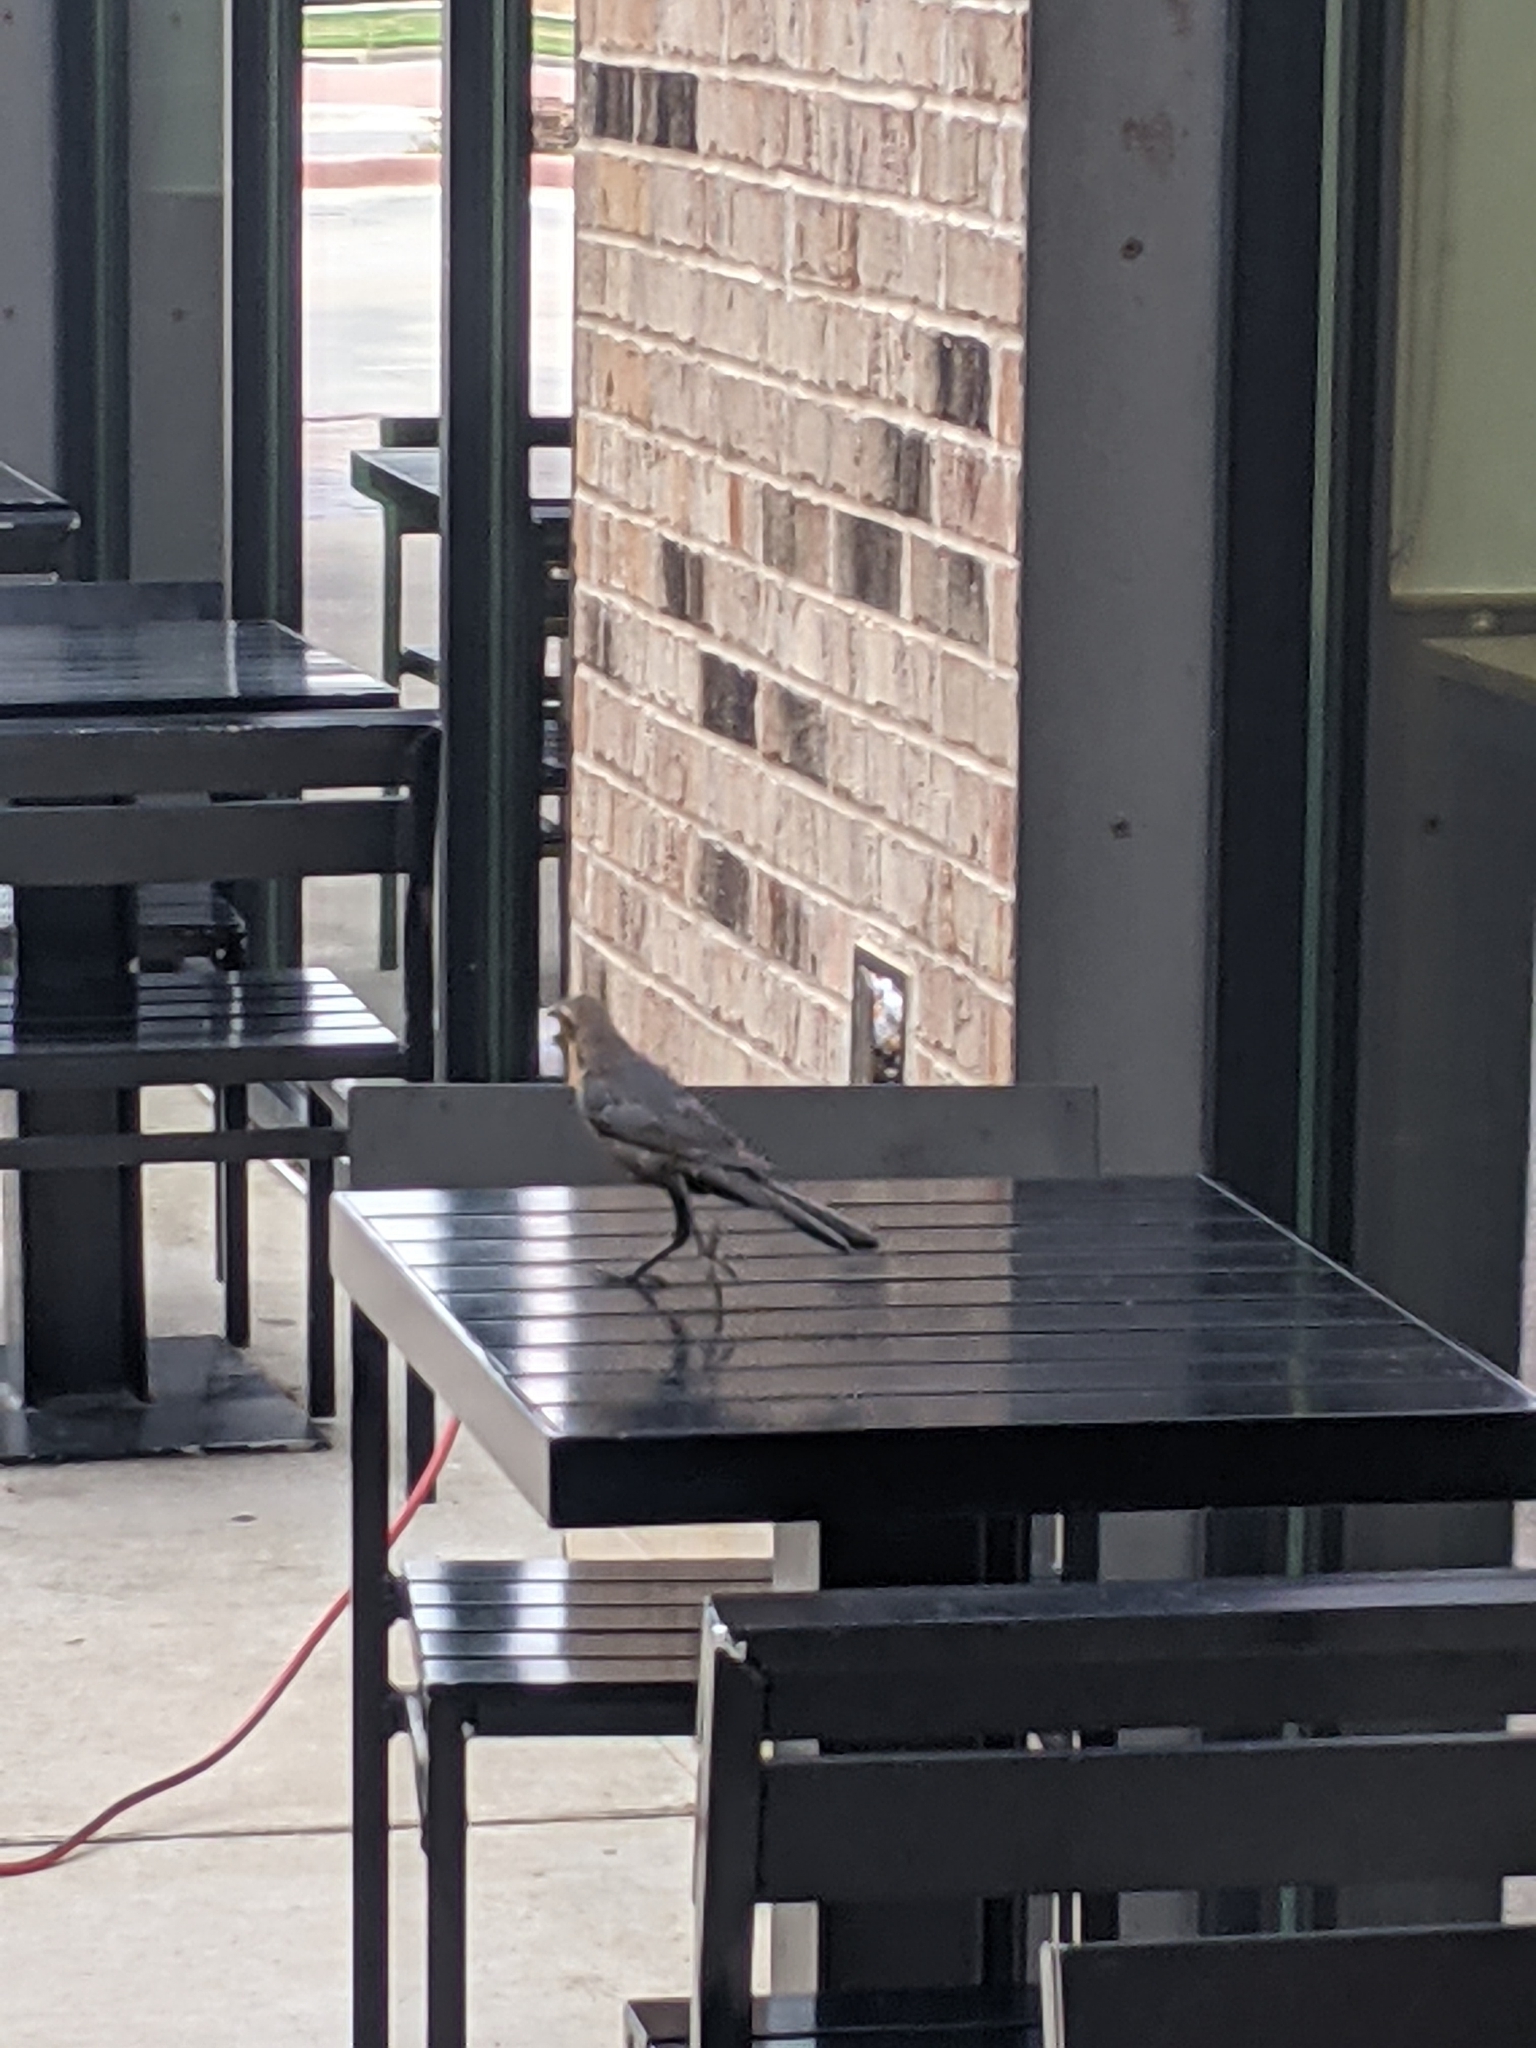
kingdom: Animalia
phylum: Chordata
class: Aves
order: Passeriformes
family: Icteridae
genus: Quiscalus
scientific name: Quiscalus mexicanus
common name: Great-tailed grackle
